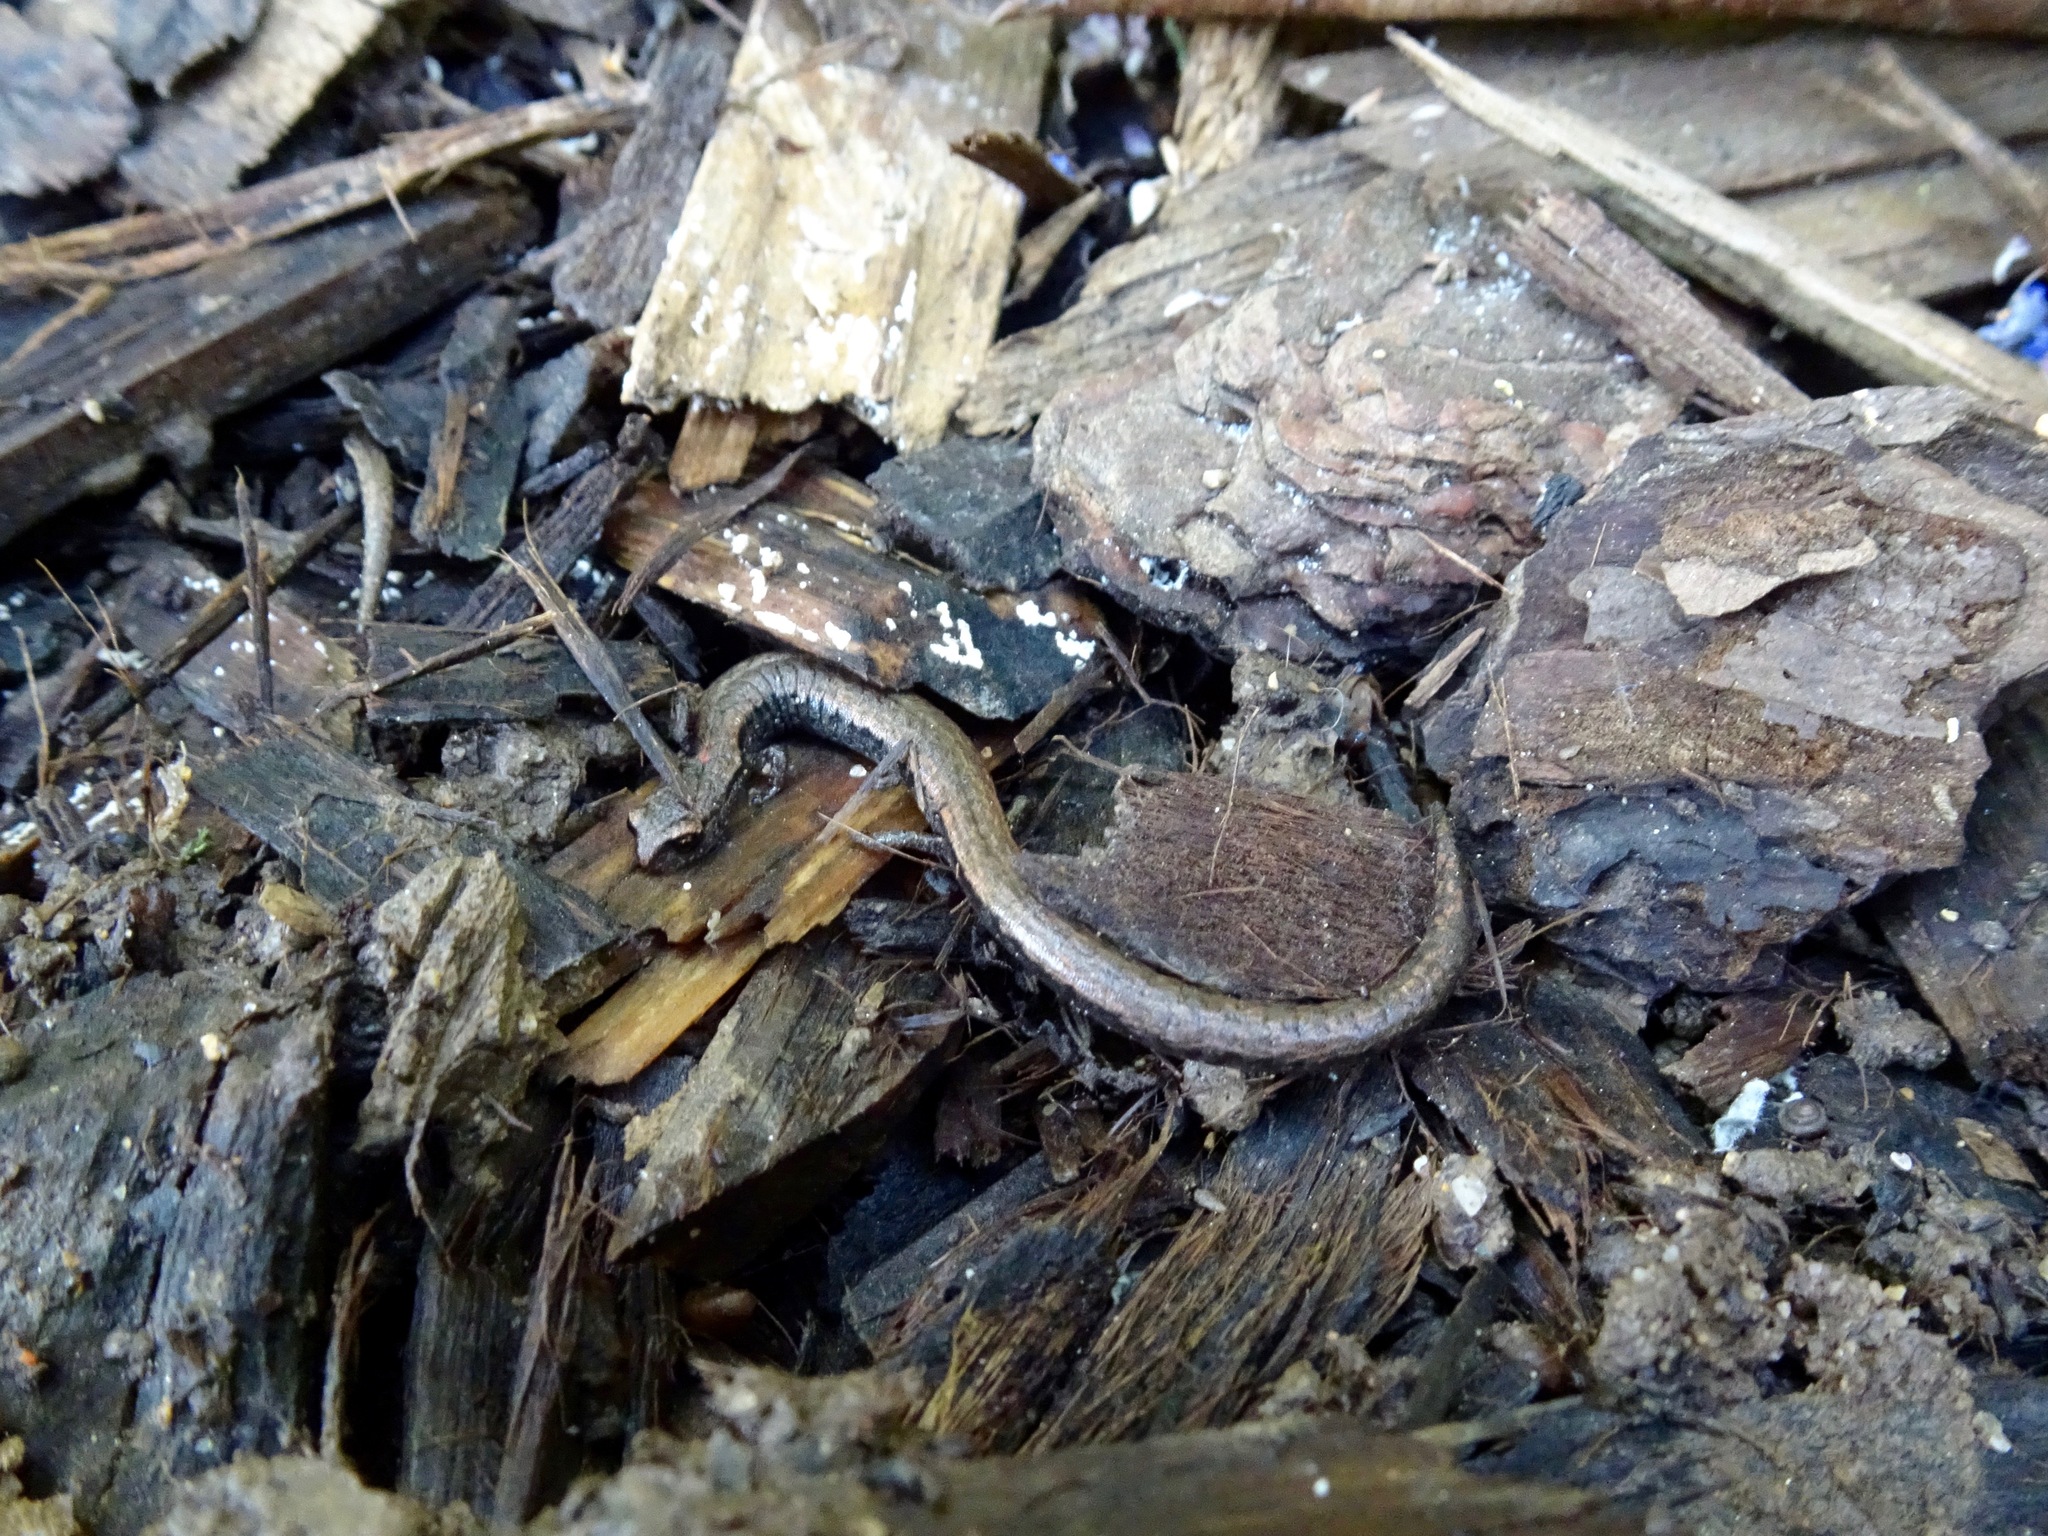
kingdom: Animalia
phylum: Chordata
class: Amphibia
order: Caudata
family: Plethodontidae
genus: Batrachoseps
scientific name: Batrachoseps nigriventris
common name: Black-bellied slender salamander
